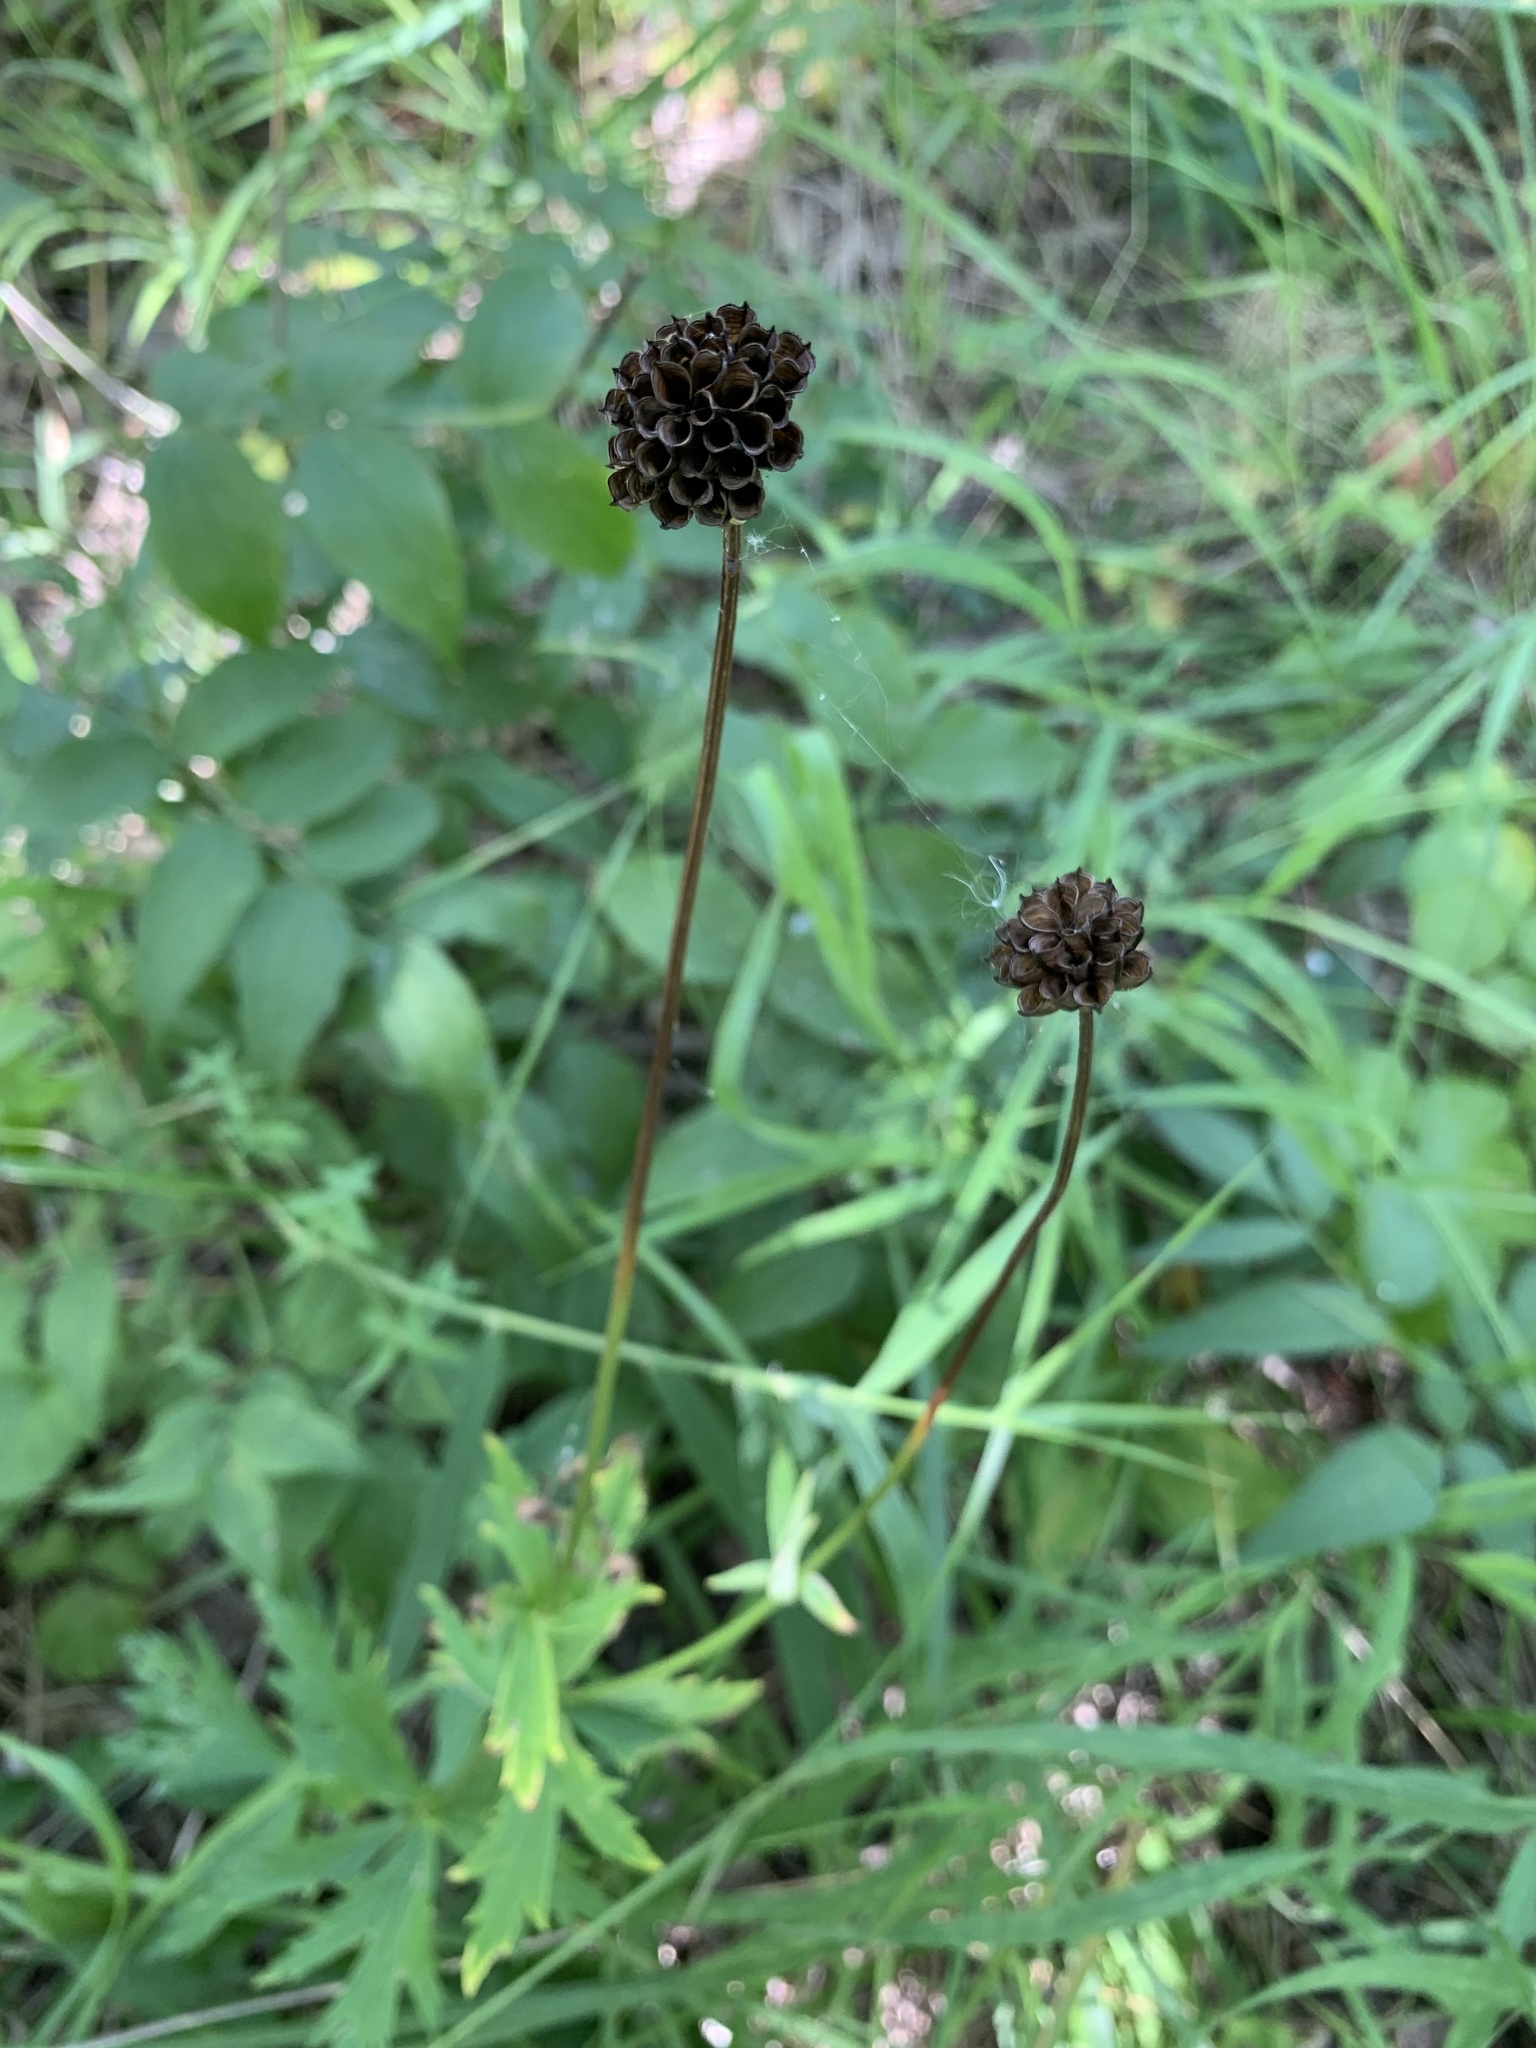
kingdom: Plantae
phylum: Tracheophyta
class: Magnoliopsida
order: Ranunculales
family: Ranunculaceae
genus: Trollius
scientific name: Trollius europaeus
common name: European globeflower
